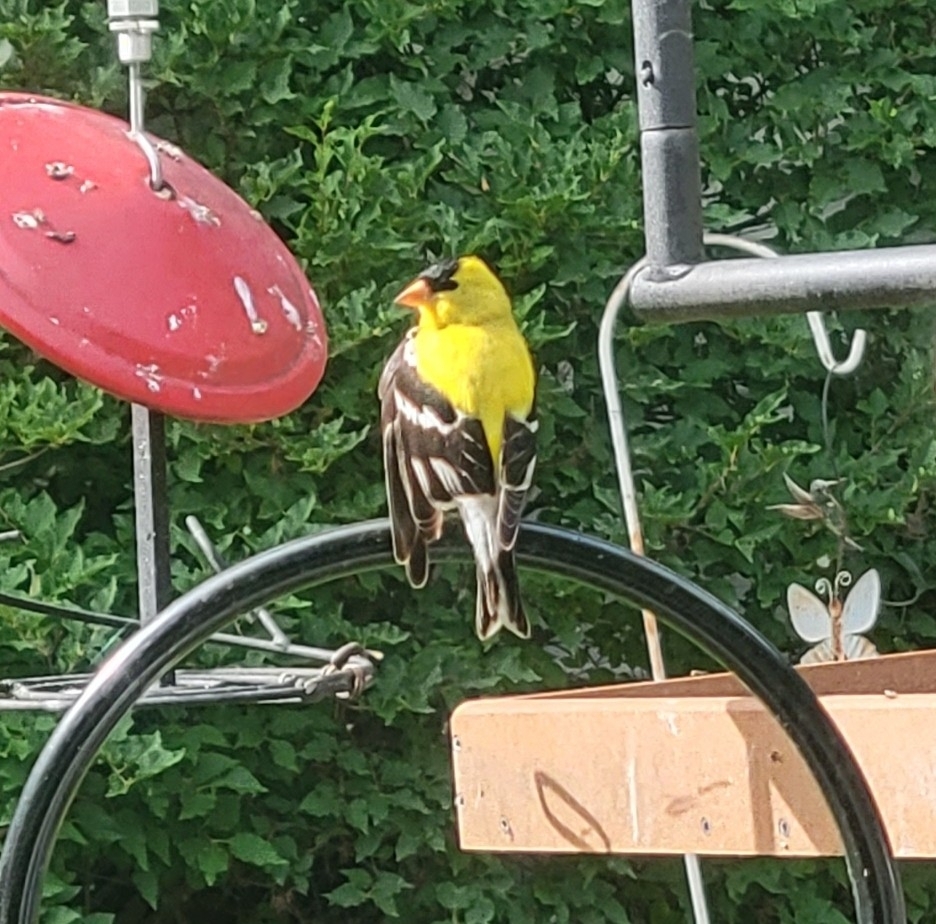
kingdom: Animalia
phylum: Chordata
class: Aves
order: Passeriformes
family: Fringillidae
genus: Spinus
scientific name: Spinus tristis
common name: American goldfinch
